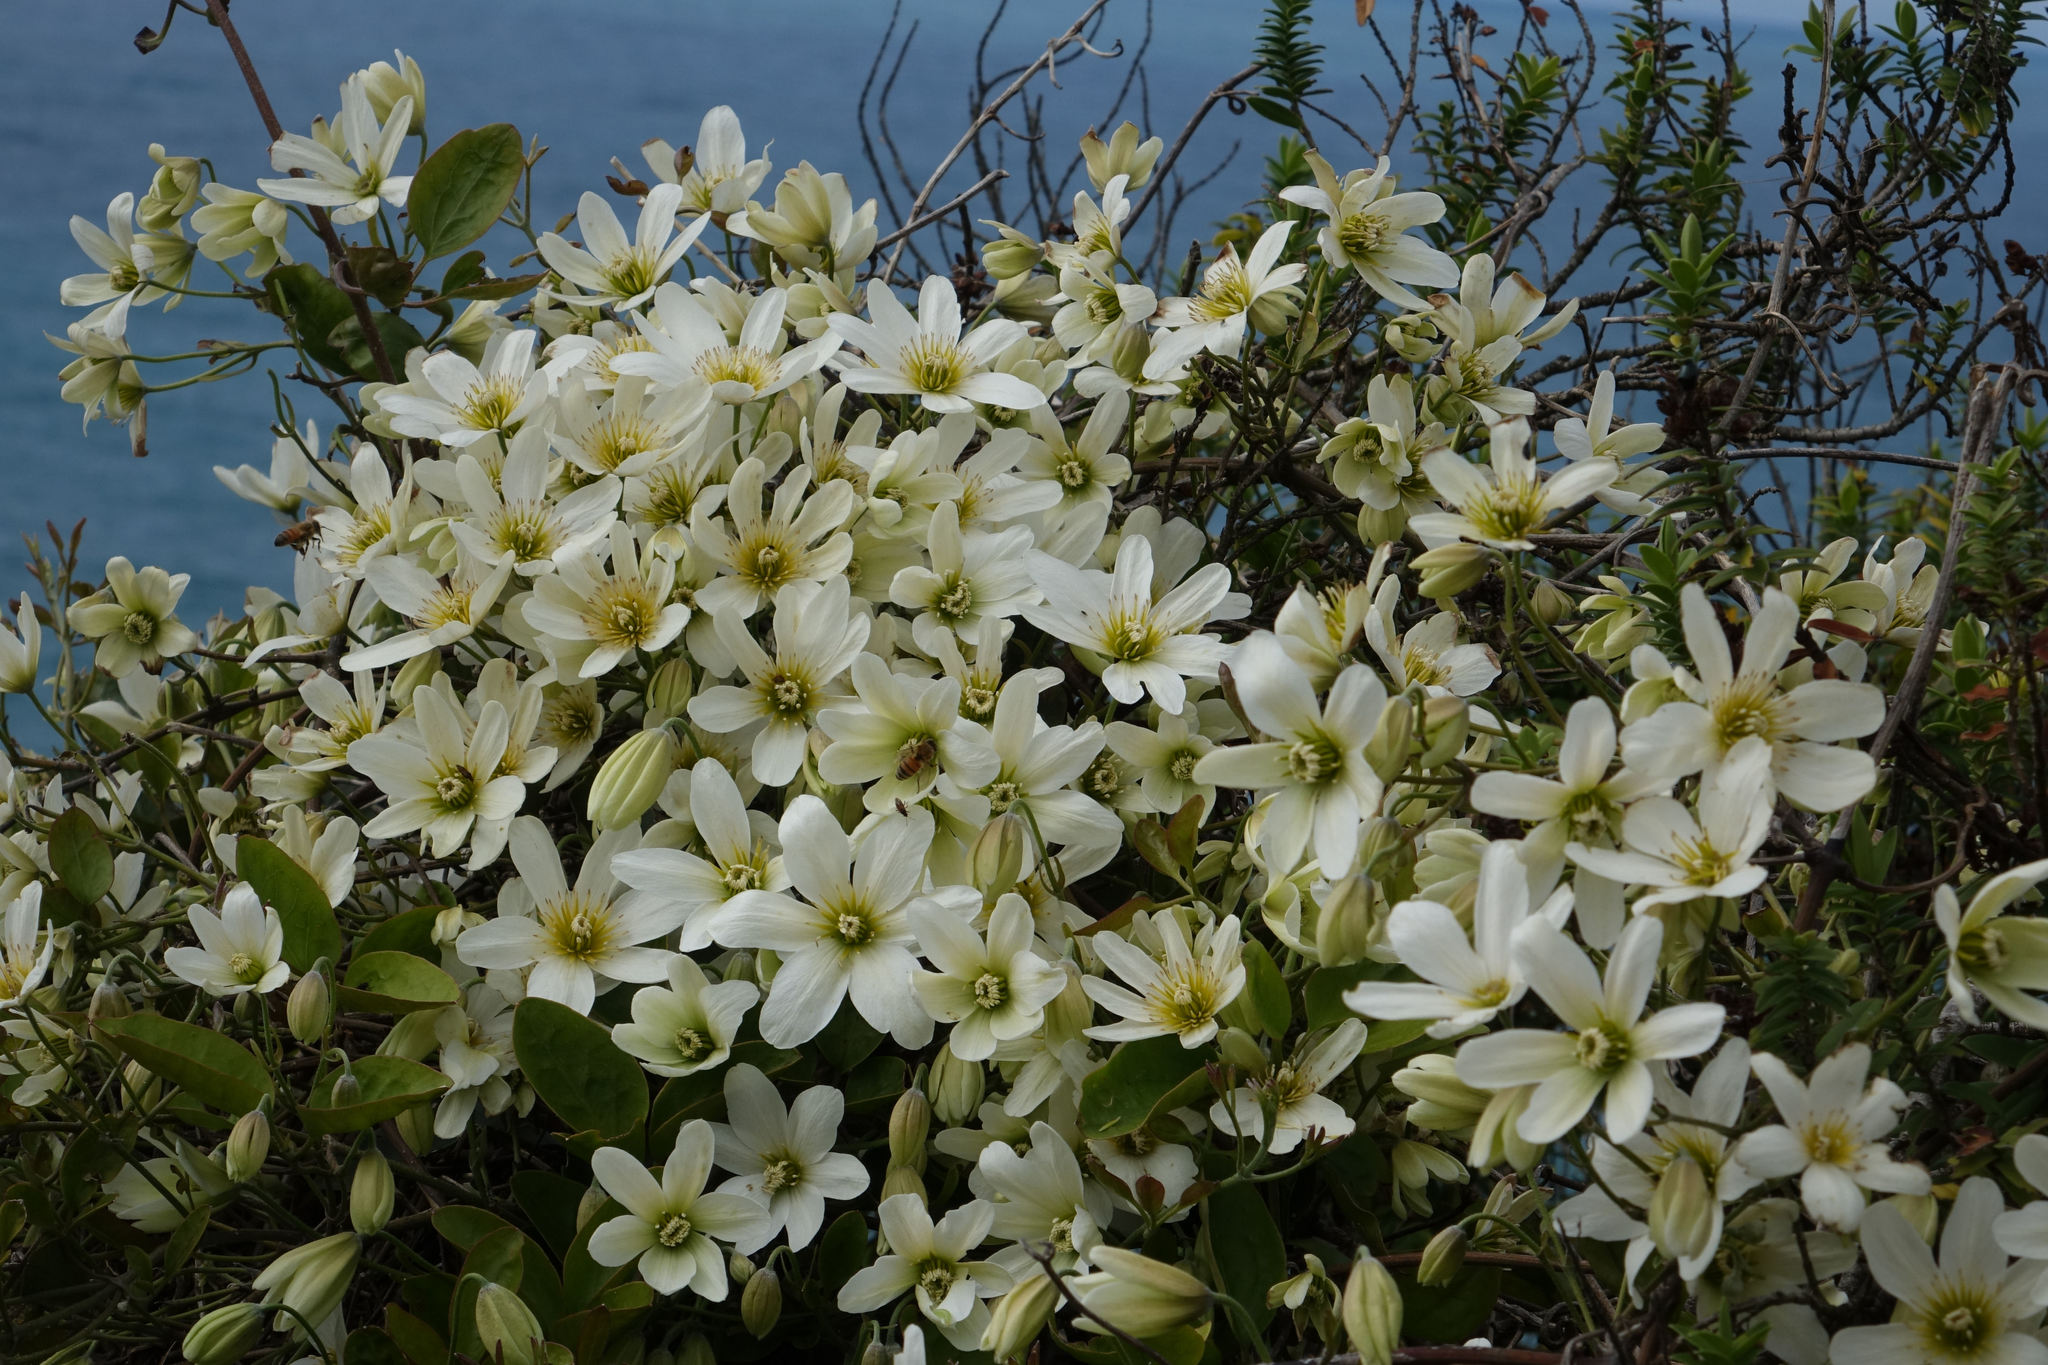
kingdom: Plantae
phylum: Tracheophyta
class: Magnoliopsida
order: Ranunculales
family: Ranunculaceae
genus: Clematis
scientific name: Clematis paniculata
